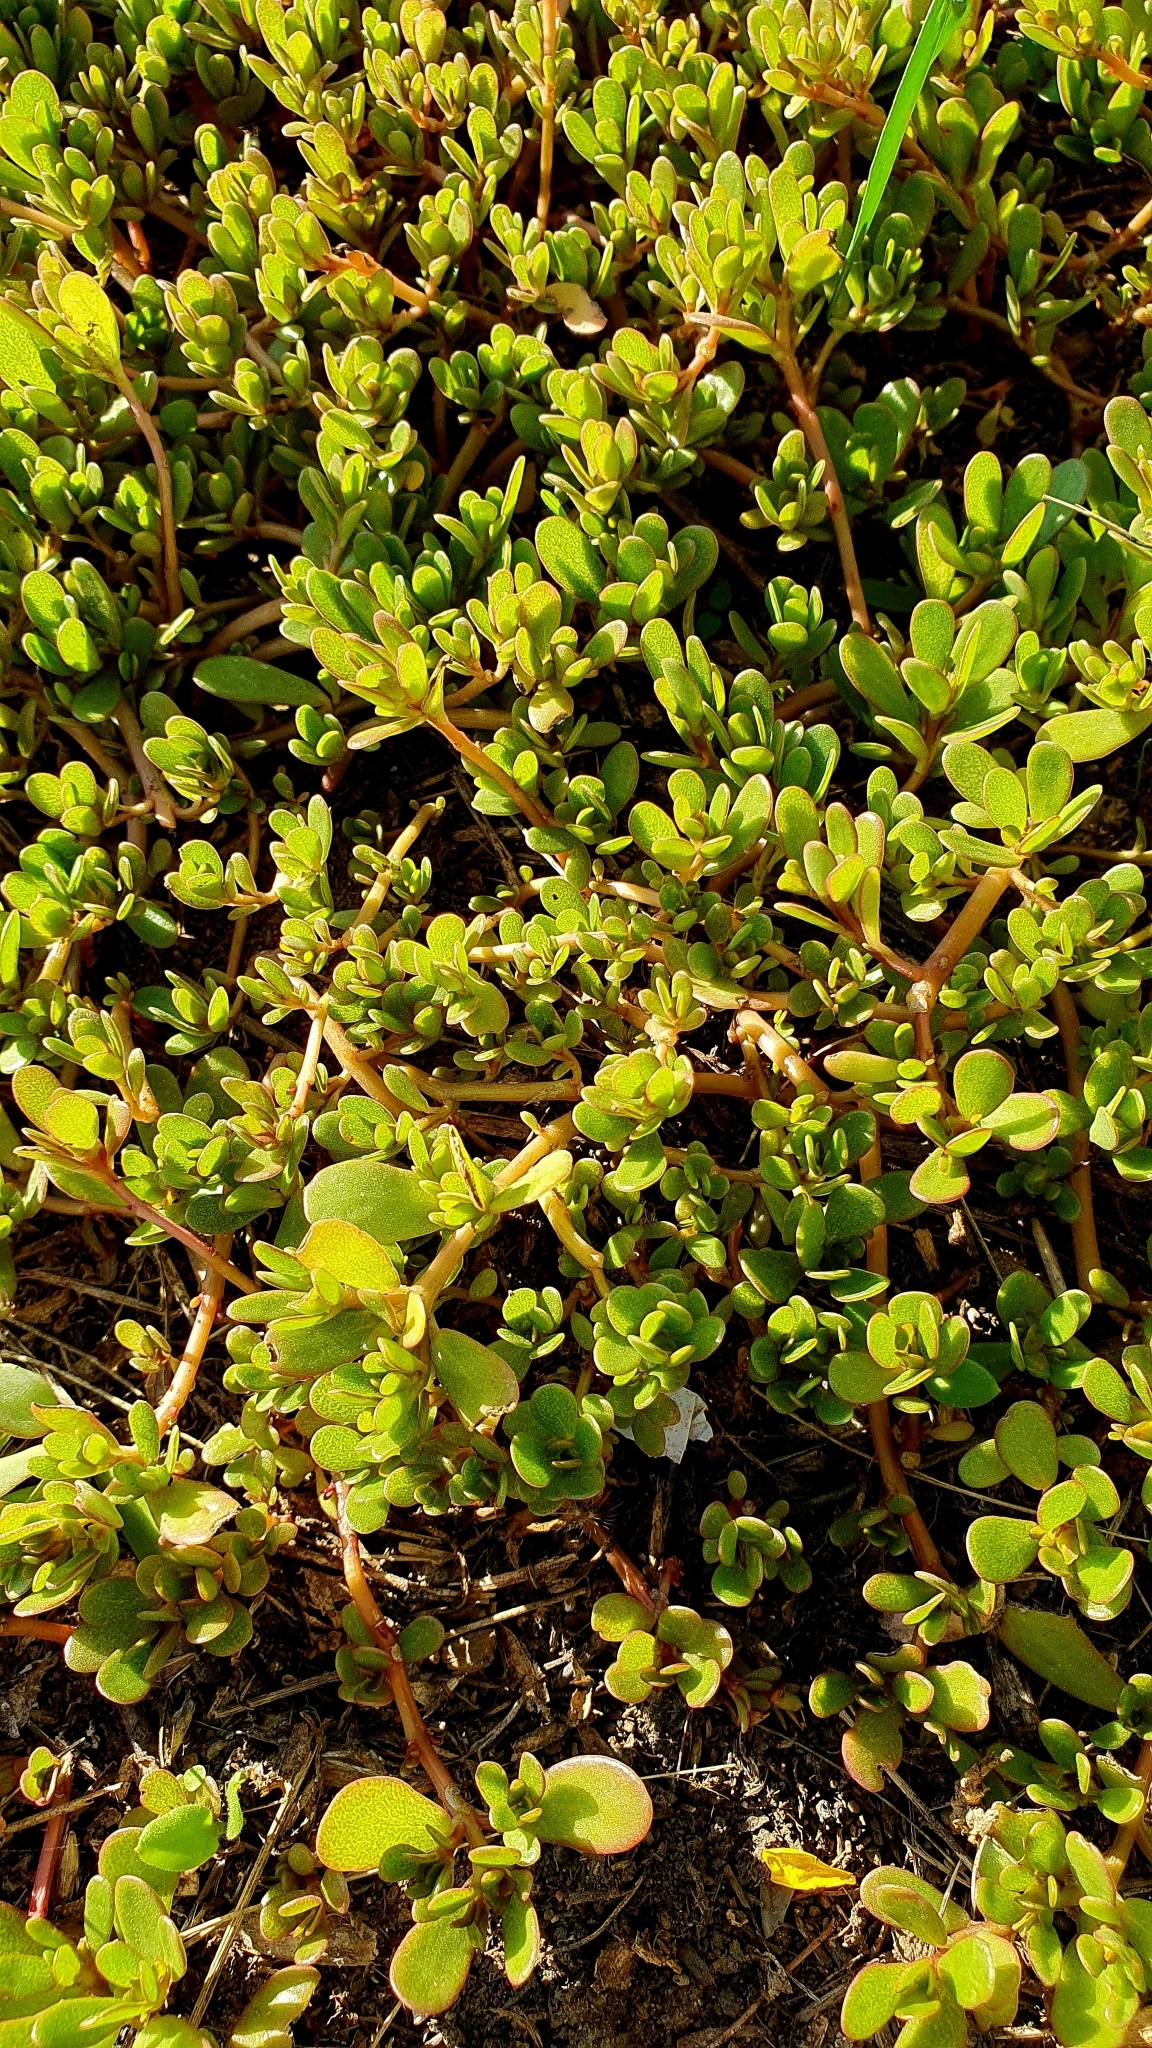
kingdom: Plantae
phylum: Tracheophyta
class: Magnoliopsida
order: Caryophyllales
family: Portulacaceae
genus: Portulaca
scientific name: Portulaca oleracea
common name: Common purslane
